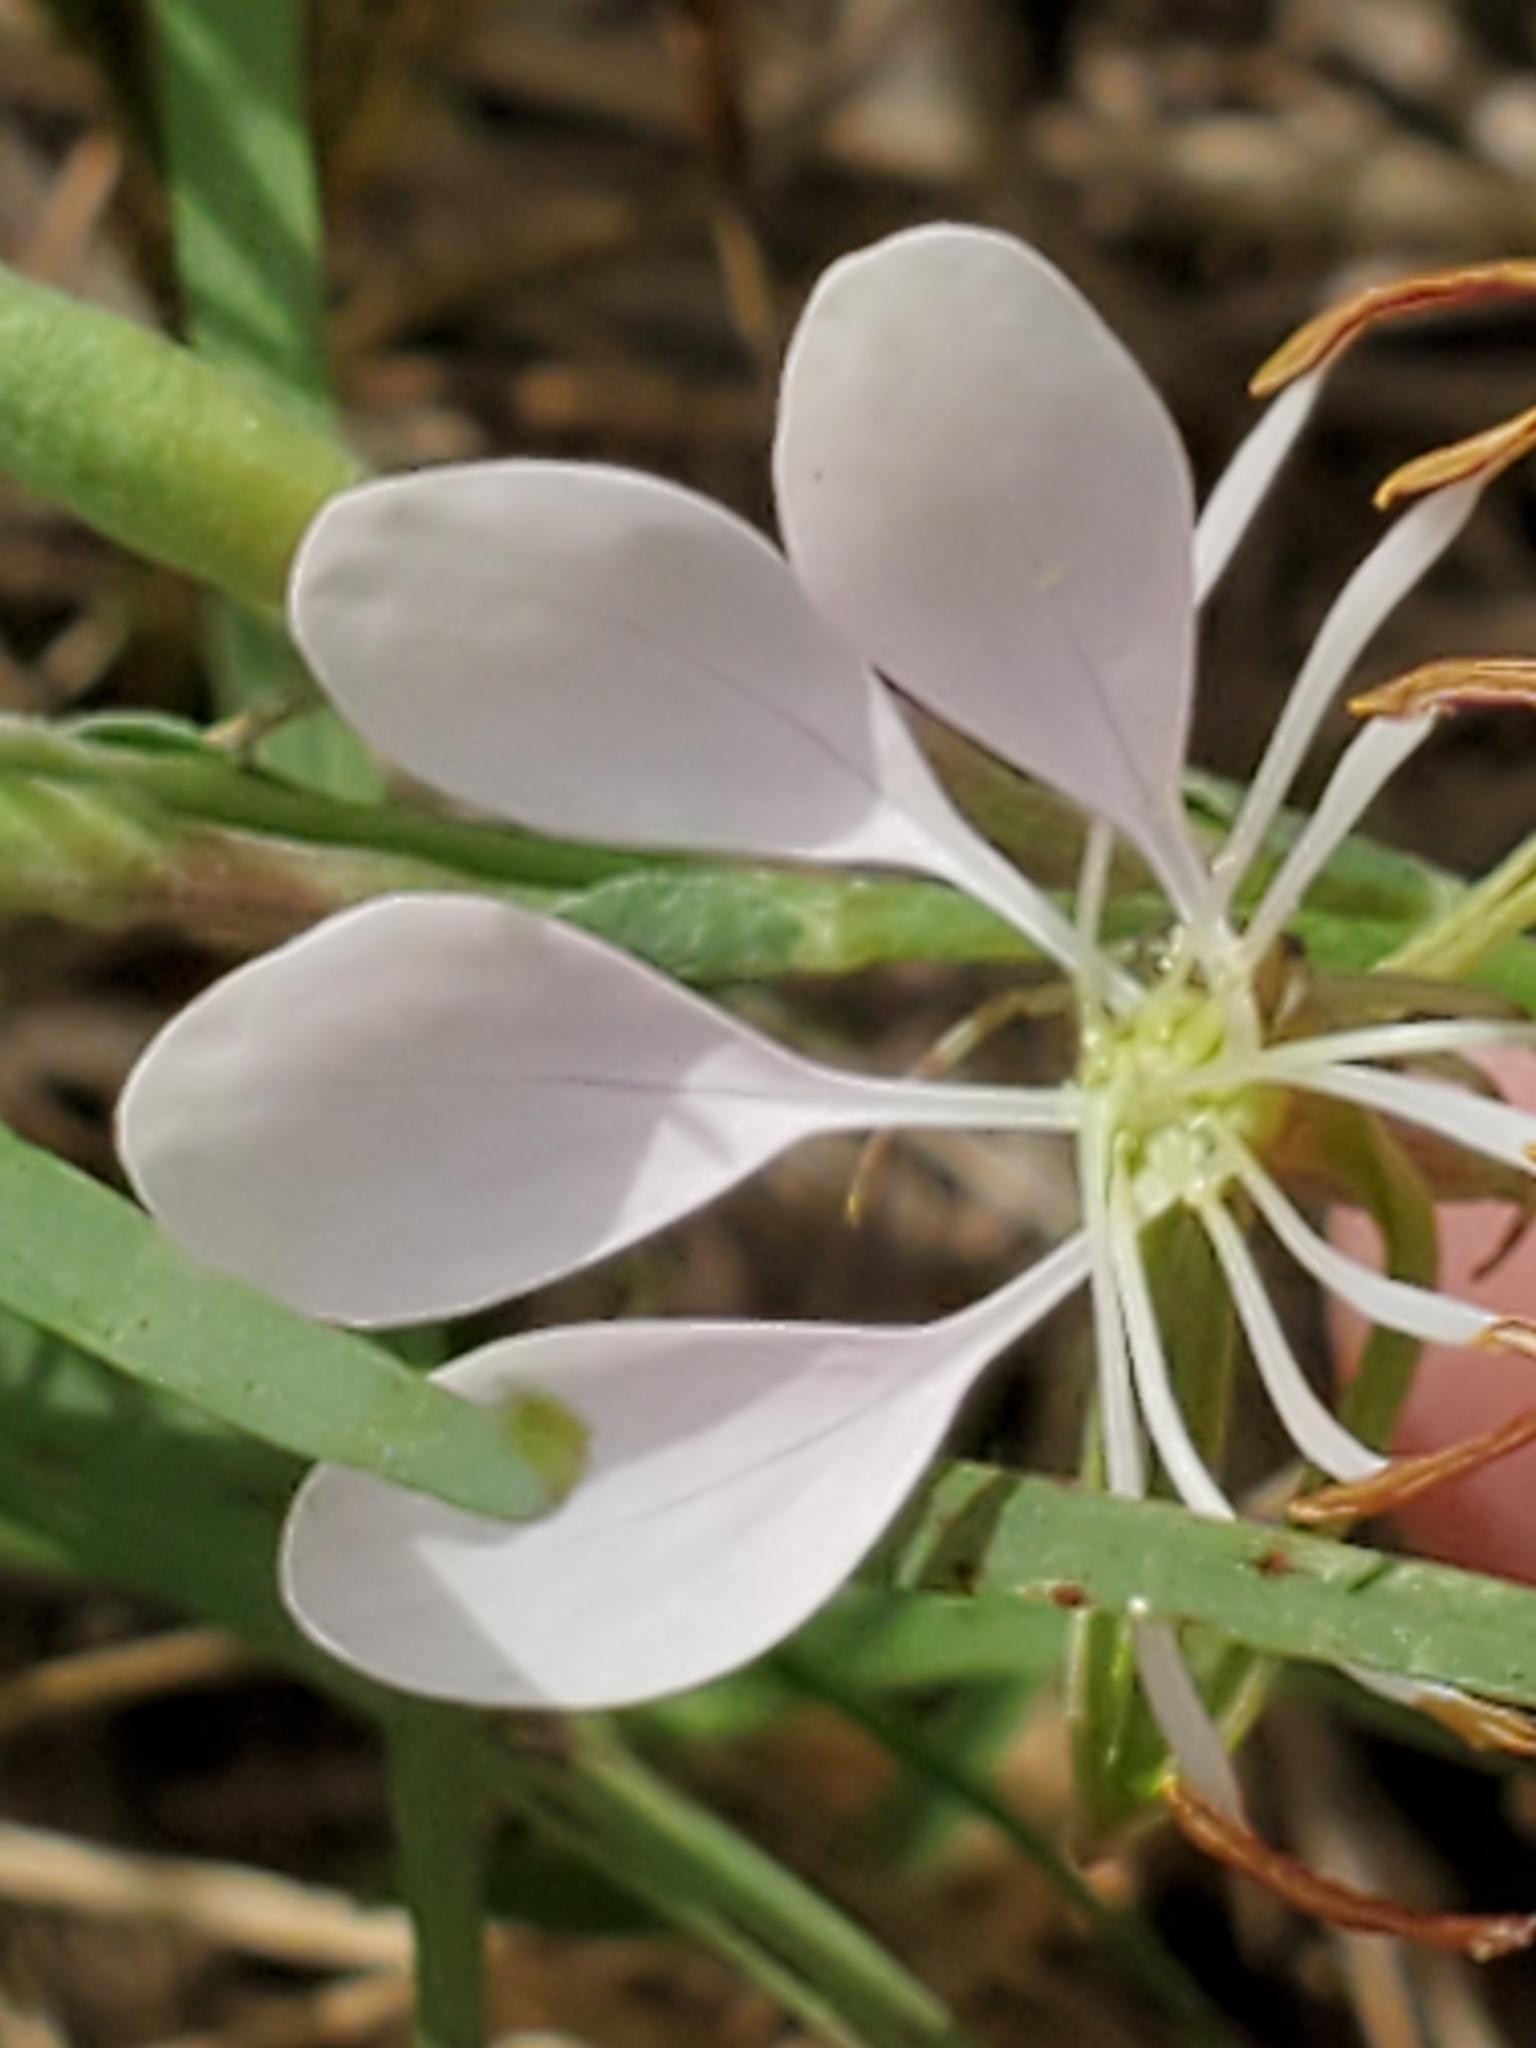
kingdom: Plantae
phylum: Tracheophyta
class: Magnoliopsida
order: Myrtales
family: Onagraceae
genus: Oenothera
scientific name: Oenothera lindheimeri
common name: Lindheimer's beeblossom
